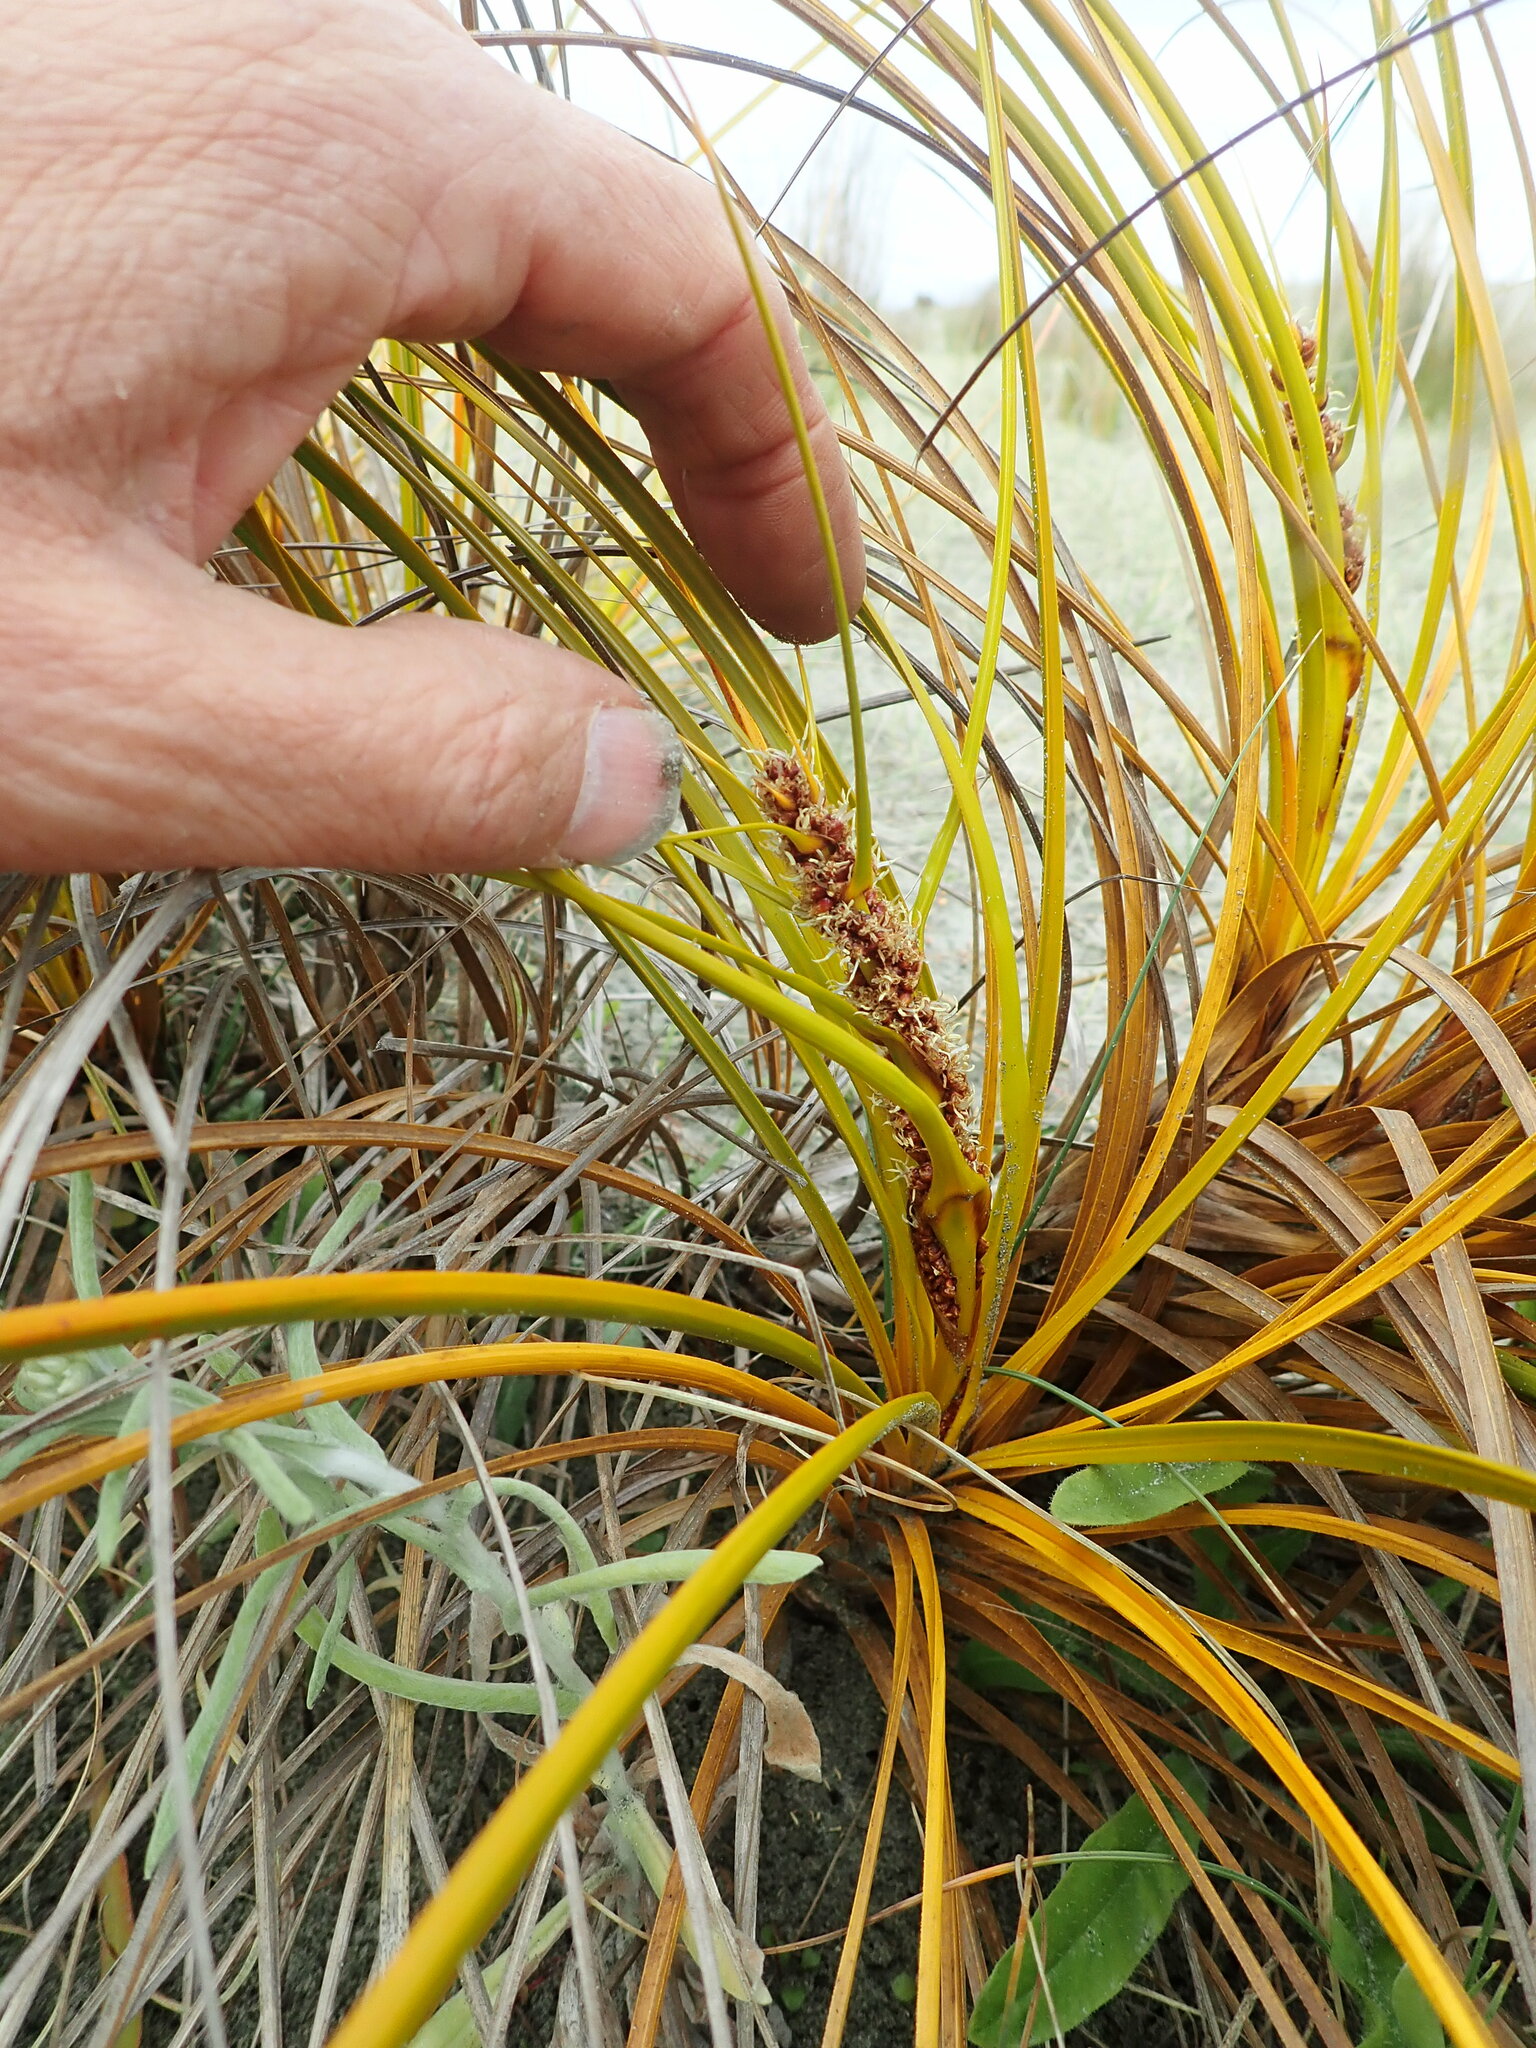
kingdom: Plantae
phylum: Tracheophyta
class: Liliopsida
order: Poales
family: Cyperaceae
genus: Ficinia
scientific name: Ficinia spiralis
